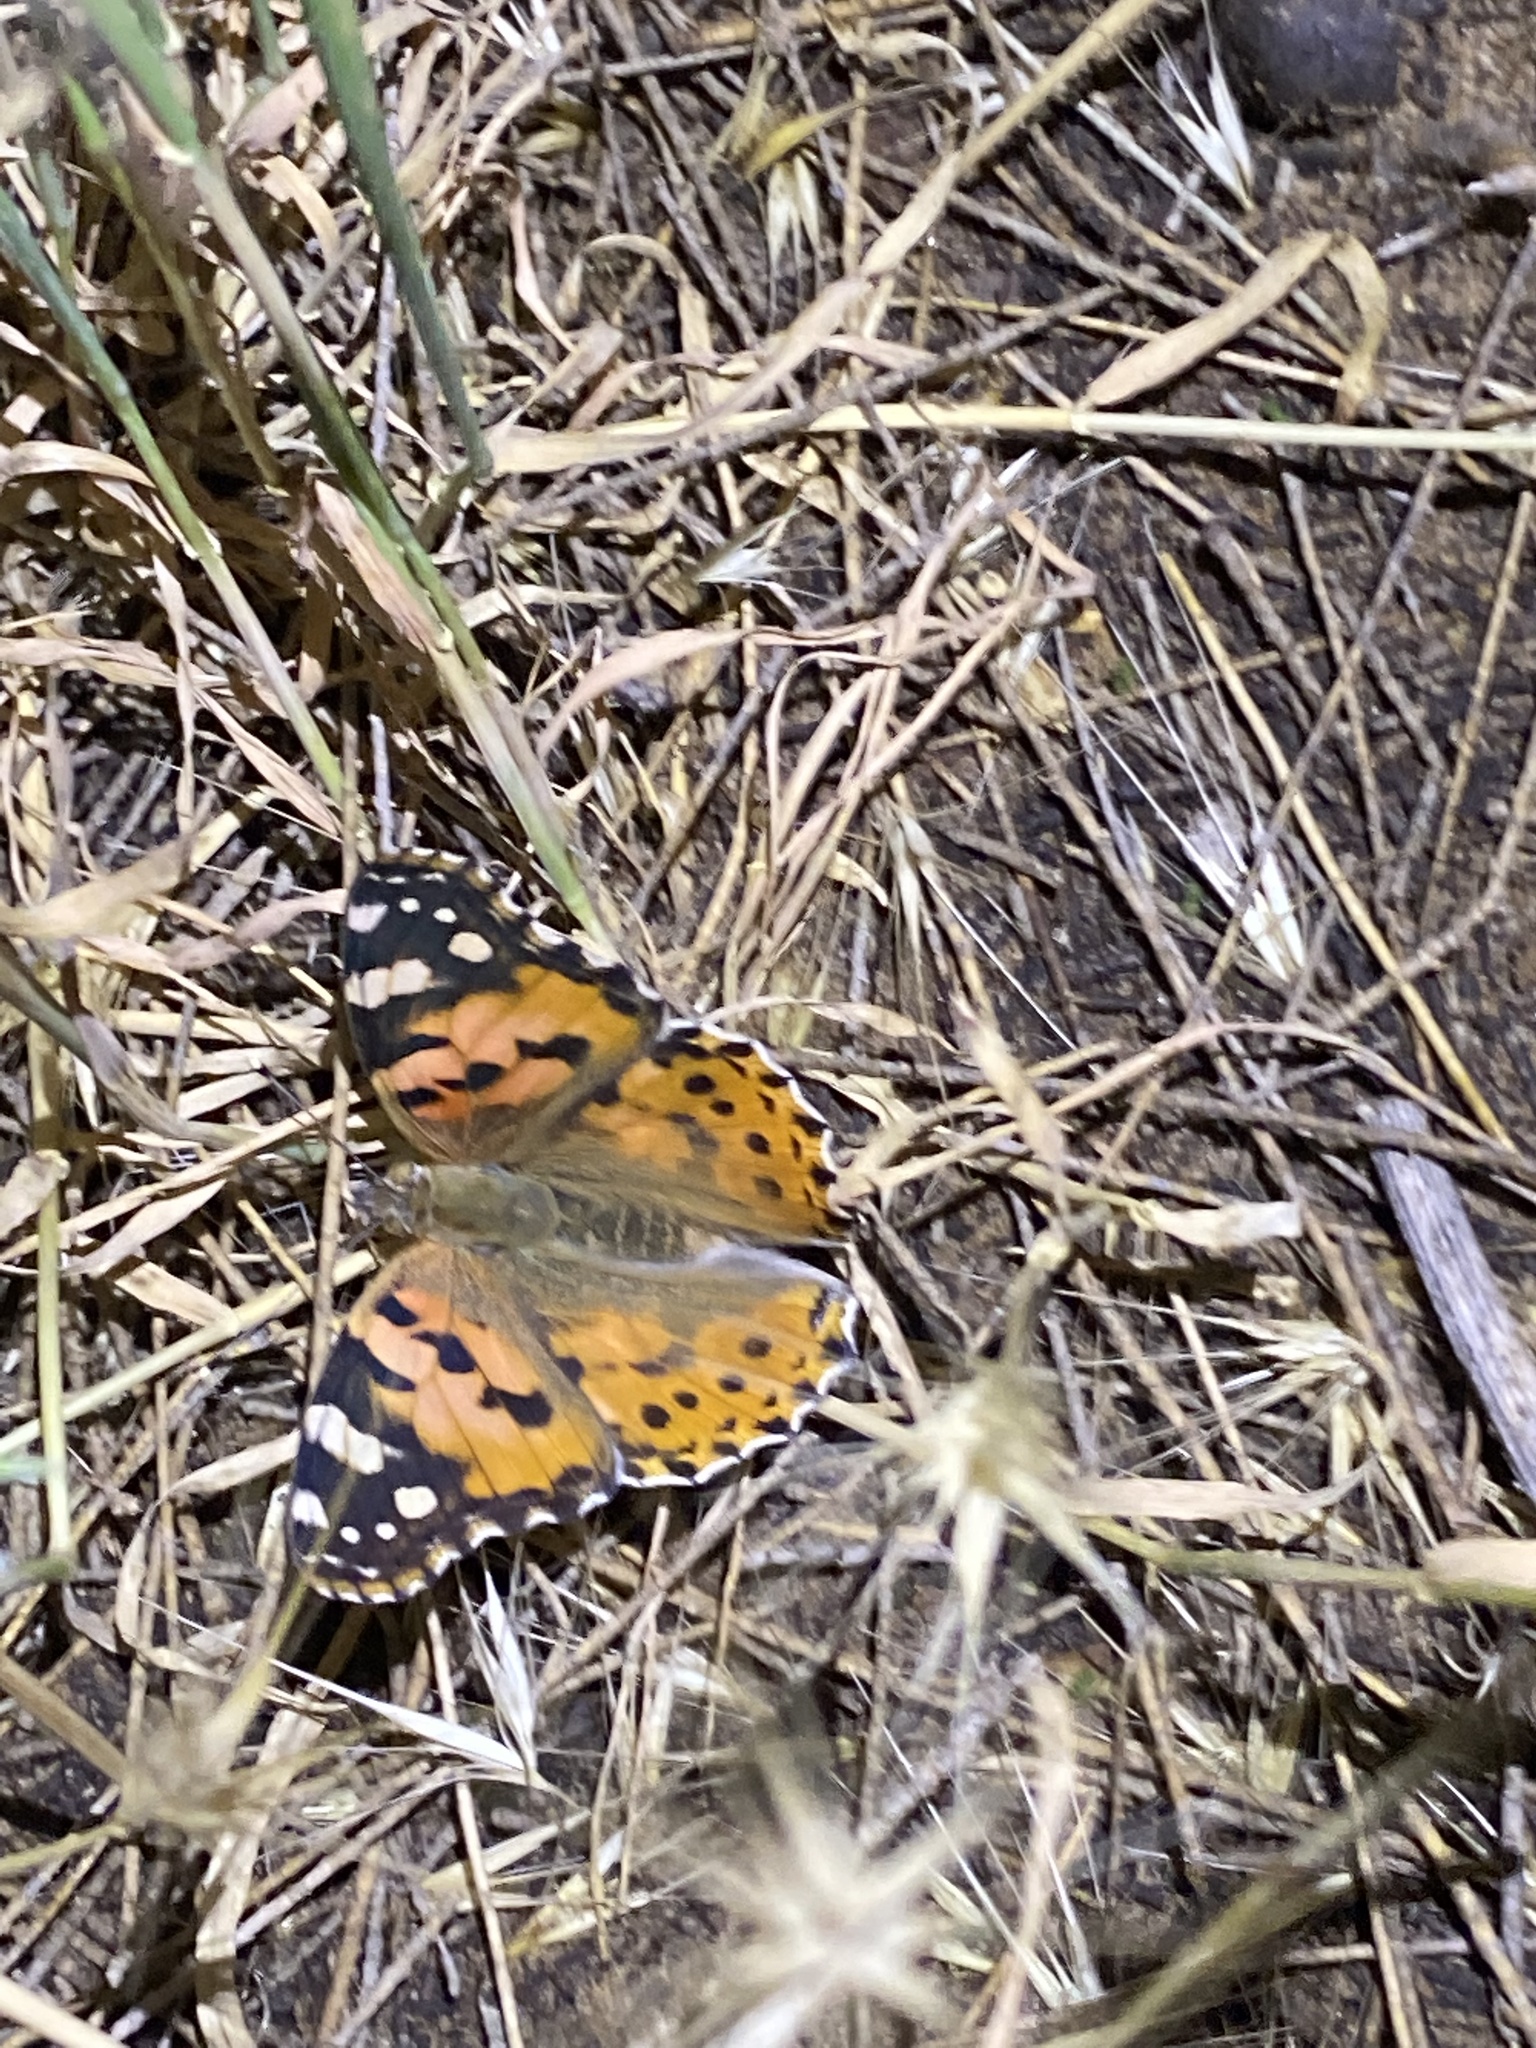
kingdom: Animalia
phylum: Arthropoda
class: Insecta
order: Lepidoptera
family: Nymphalidae
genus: Vanessa
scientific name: Vanessa cardui
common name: Painted lady
